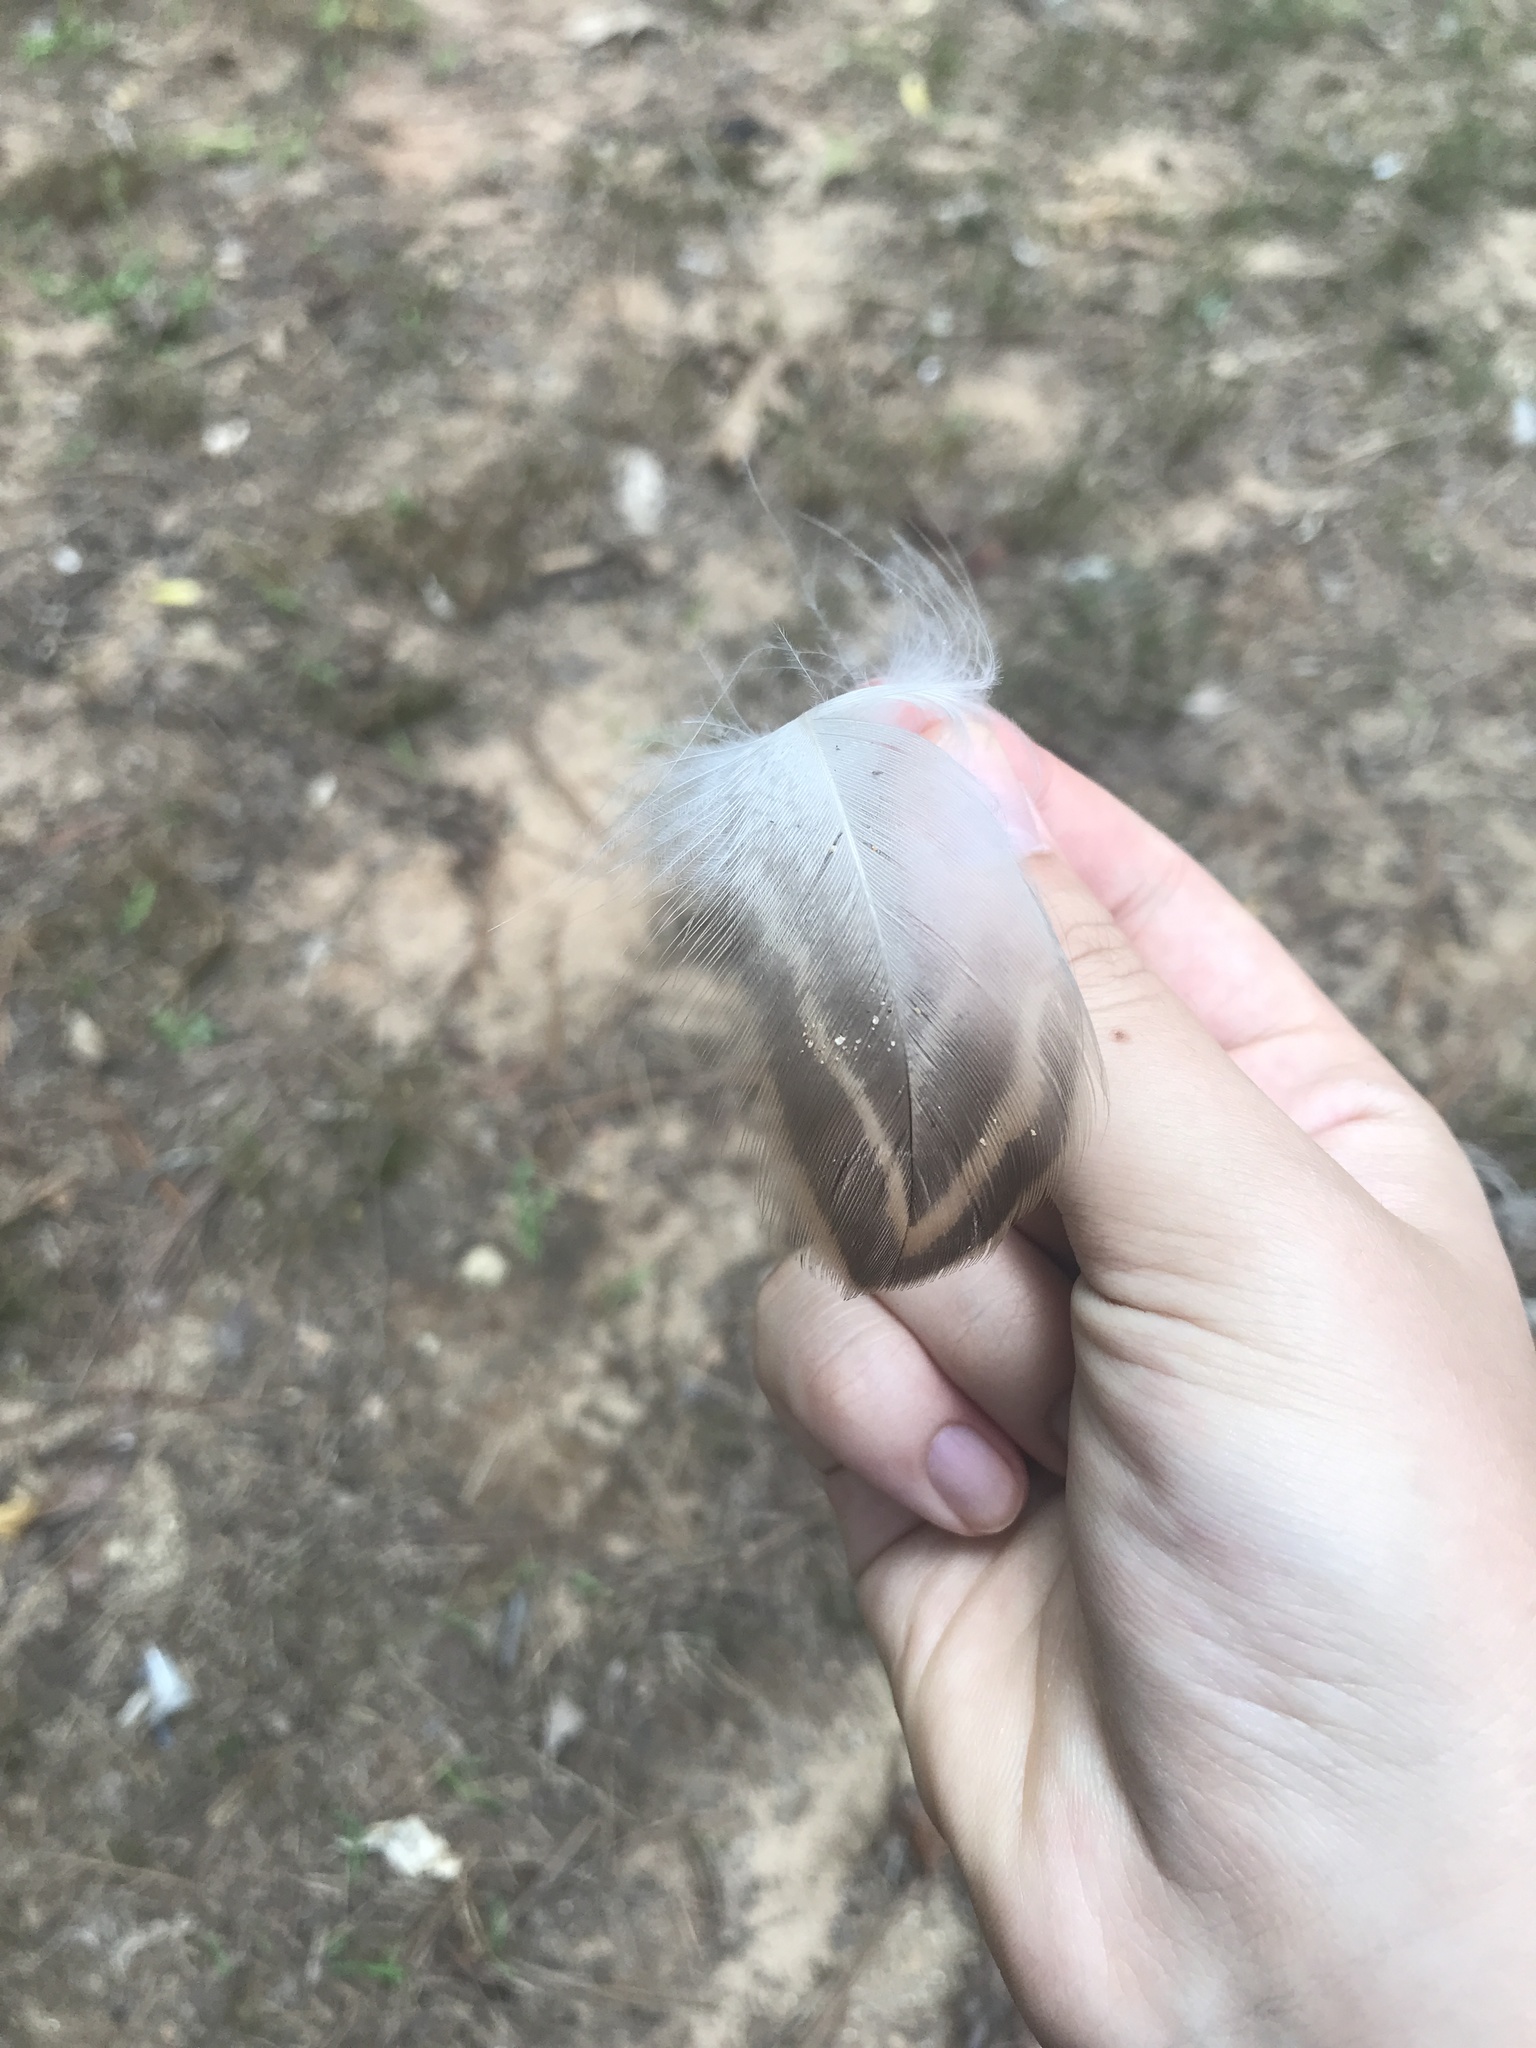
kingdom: Animalia
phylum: Chordata
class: Aves
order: Anseriformes
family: Anatidae
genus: Anas
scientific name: Anas platyrhynchos
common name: Mallard
